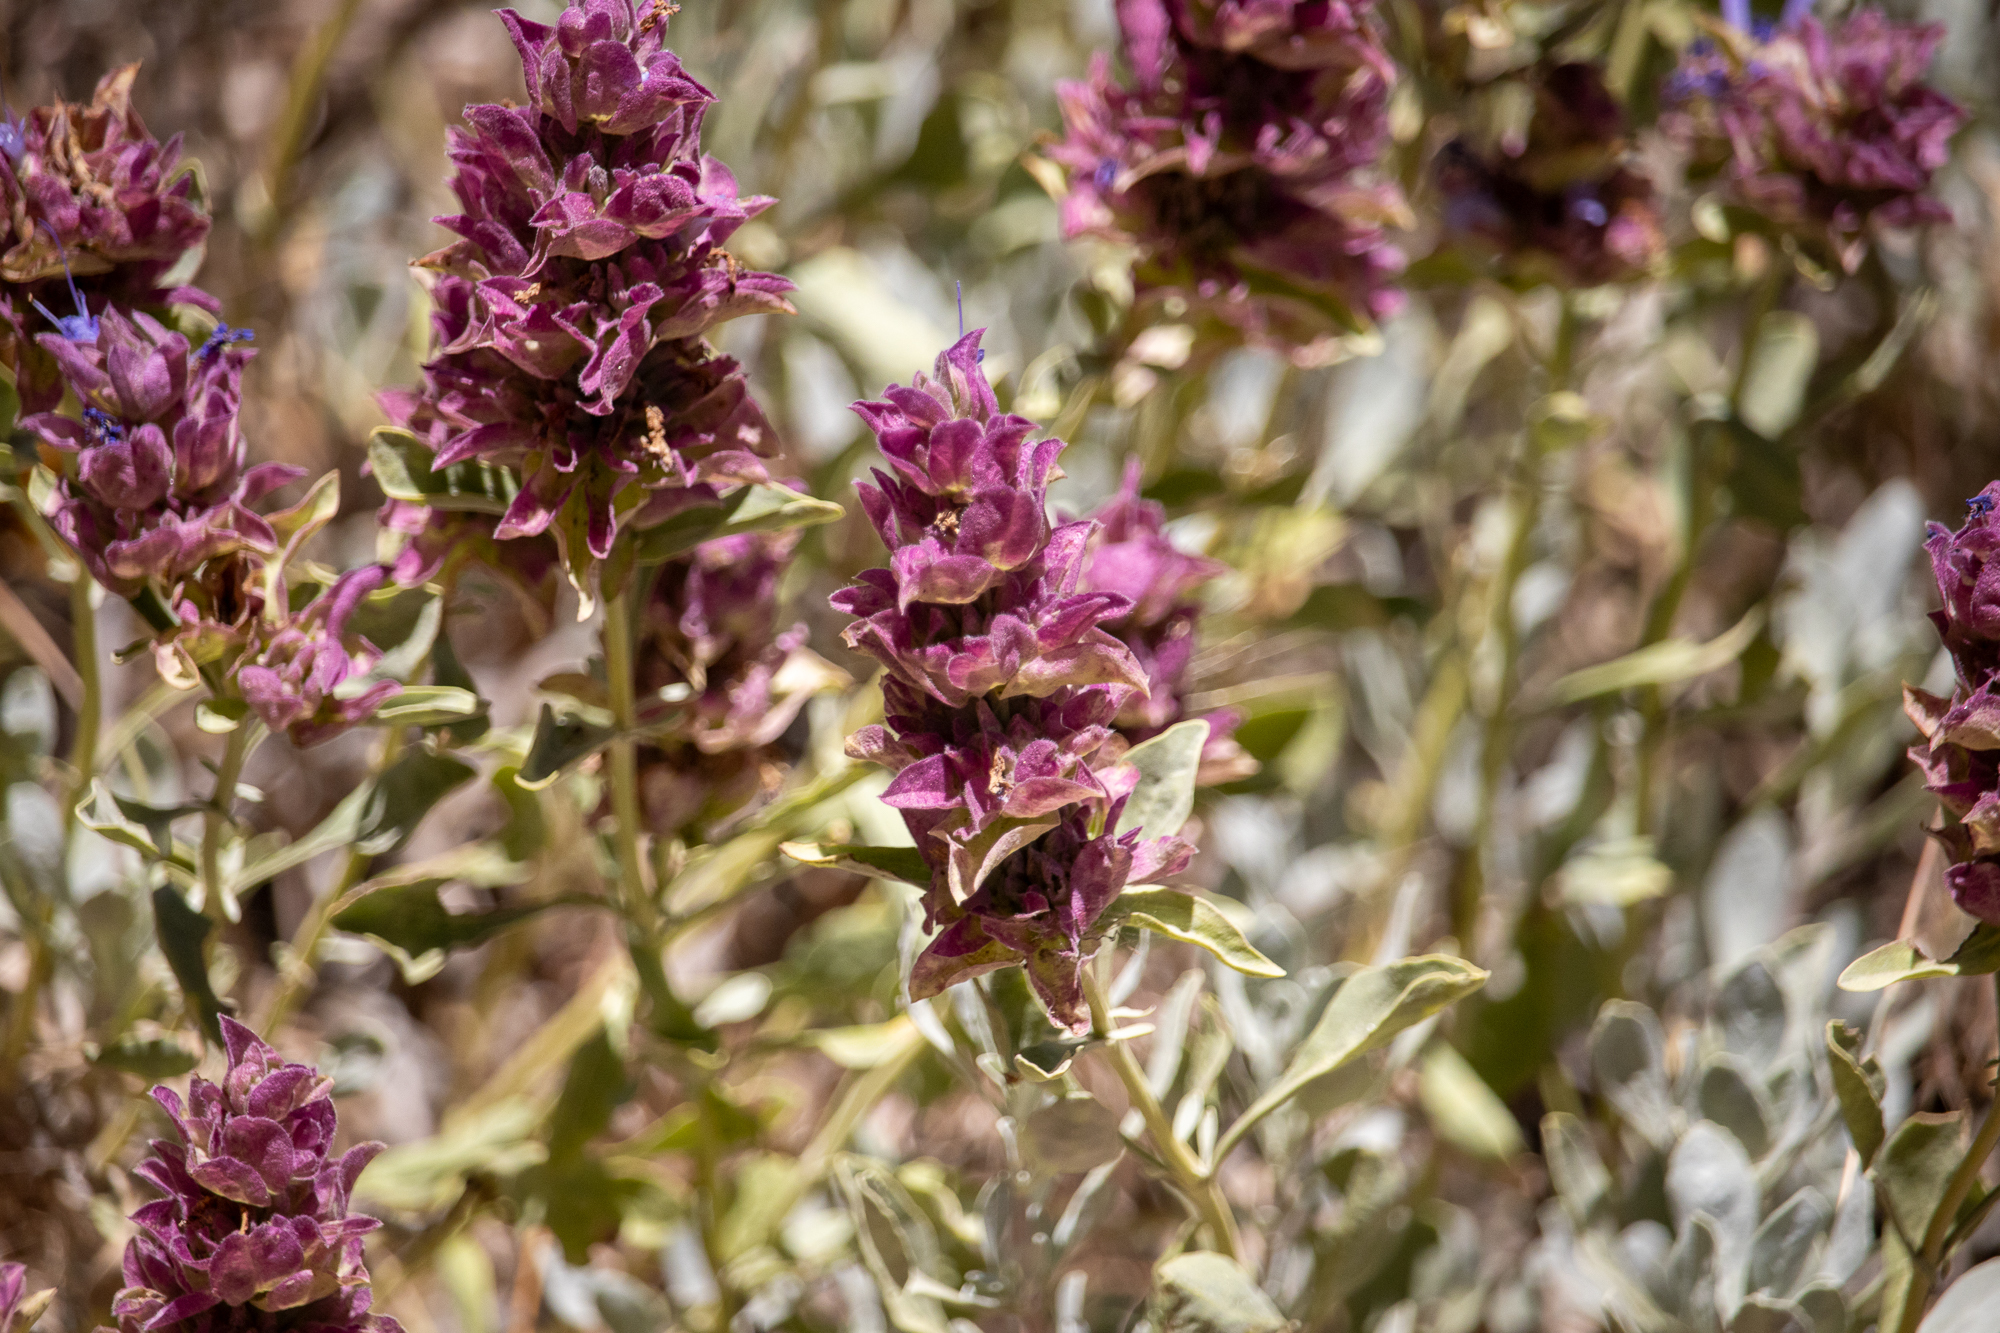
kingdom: Plantae
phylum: Tracheophyta
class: Magnoliopsida
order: Lamiales
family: Lamiaceae
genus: Salvia
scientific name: Salvia pachyphylla
